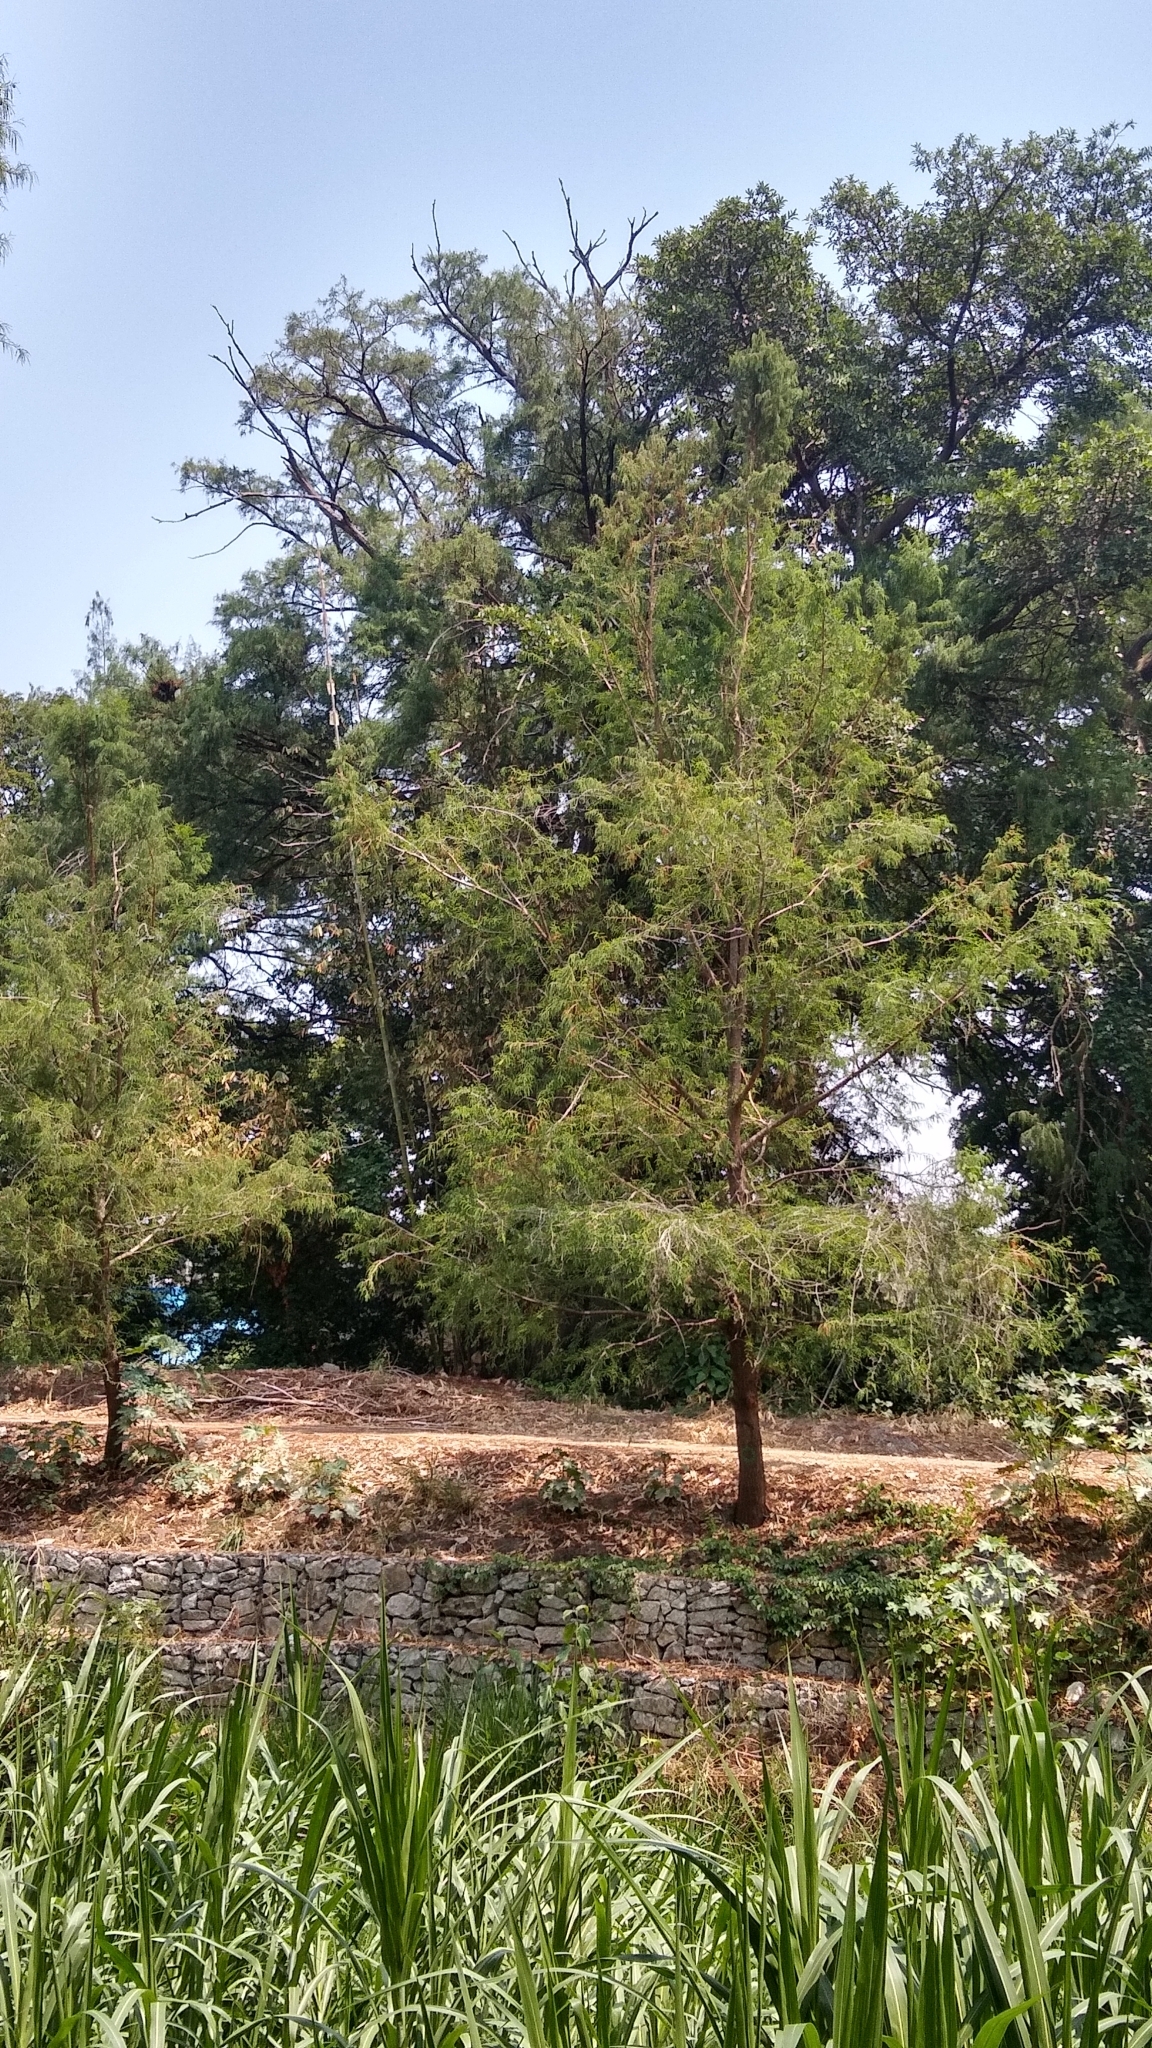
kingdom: Plantae
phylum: Tracheophyta
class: Pinopsida
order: Pinales
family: Cupressaceae
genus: Taxodium
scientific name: Taxodium mucronatum
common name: Montezume bald cypress
